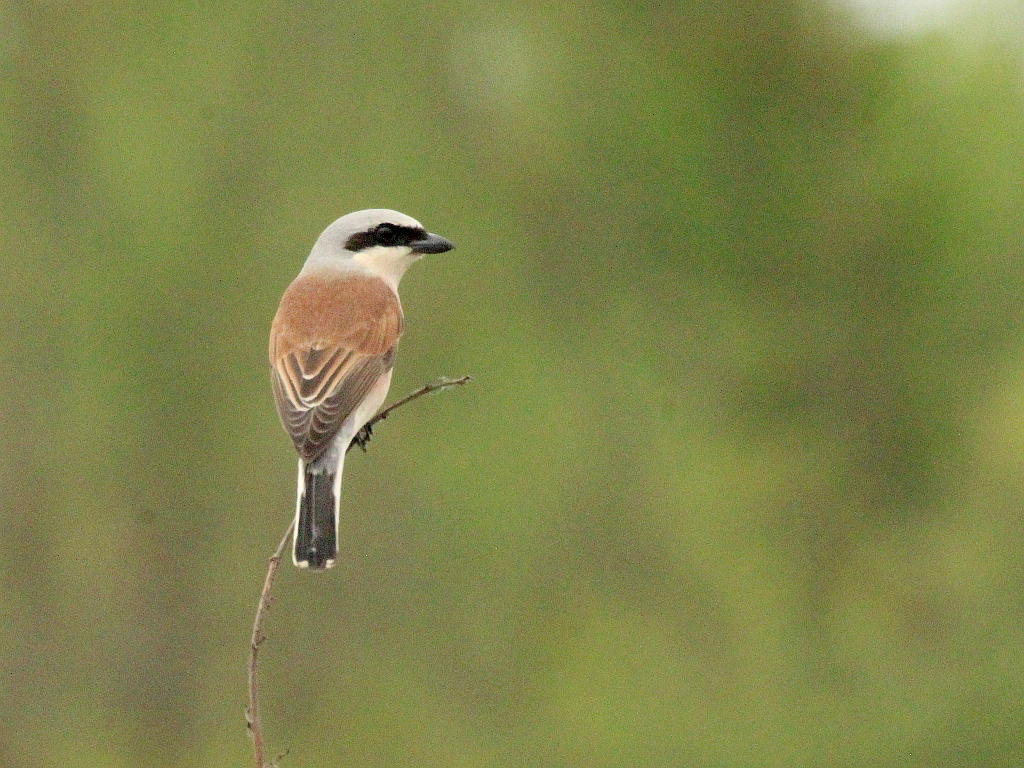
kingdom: Animalia
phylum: Chordata
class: Aves
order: Passeriformes
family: Laniidae
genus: Lanius
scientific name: Lanius collurio
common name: Red-backed shrike
